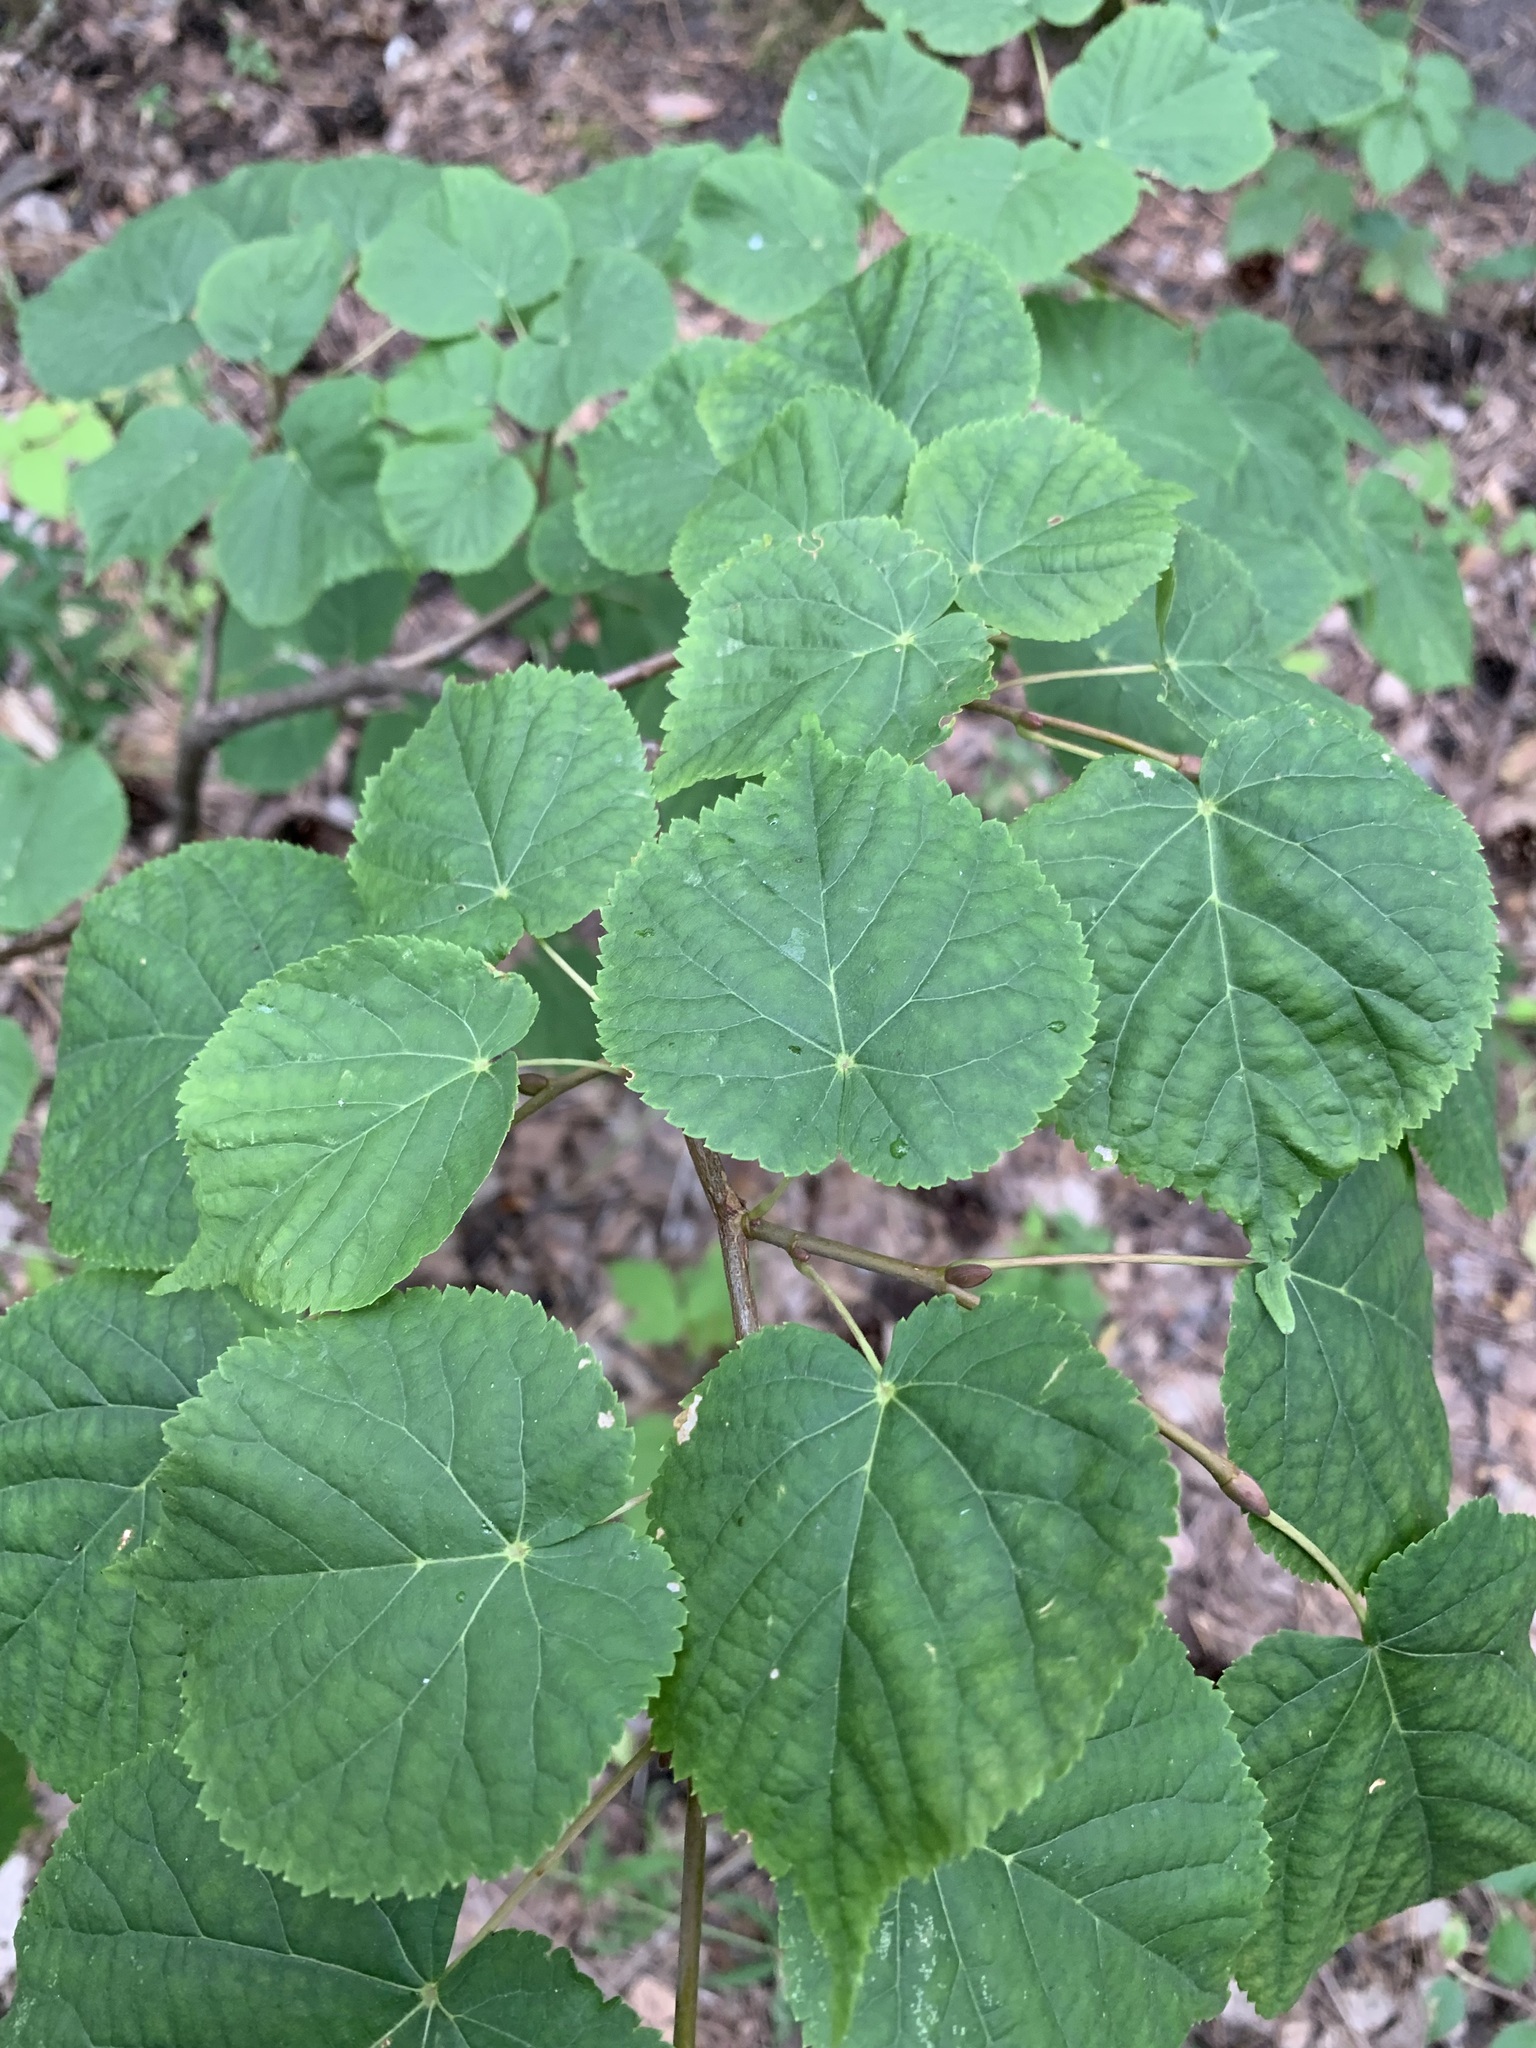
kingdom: Plantae
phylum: Tracheophyta
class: Magnoliopsida
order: Malvales
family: Malvaceae
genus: Tilia
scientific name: Tilia cordata
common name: Small-leaved lime
